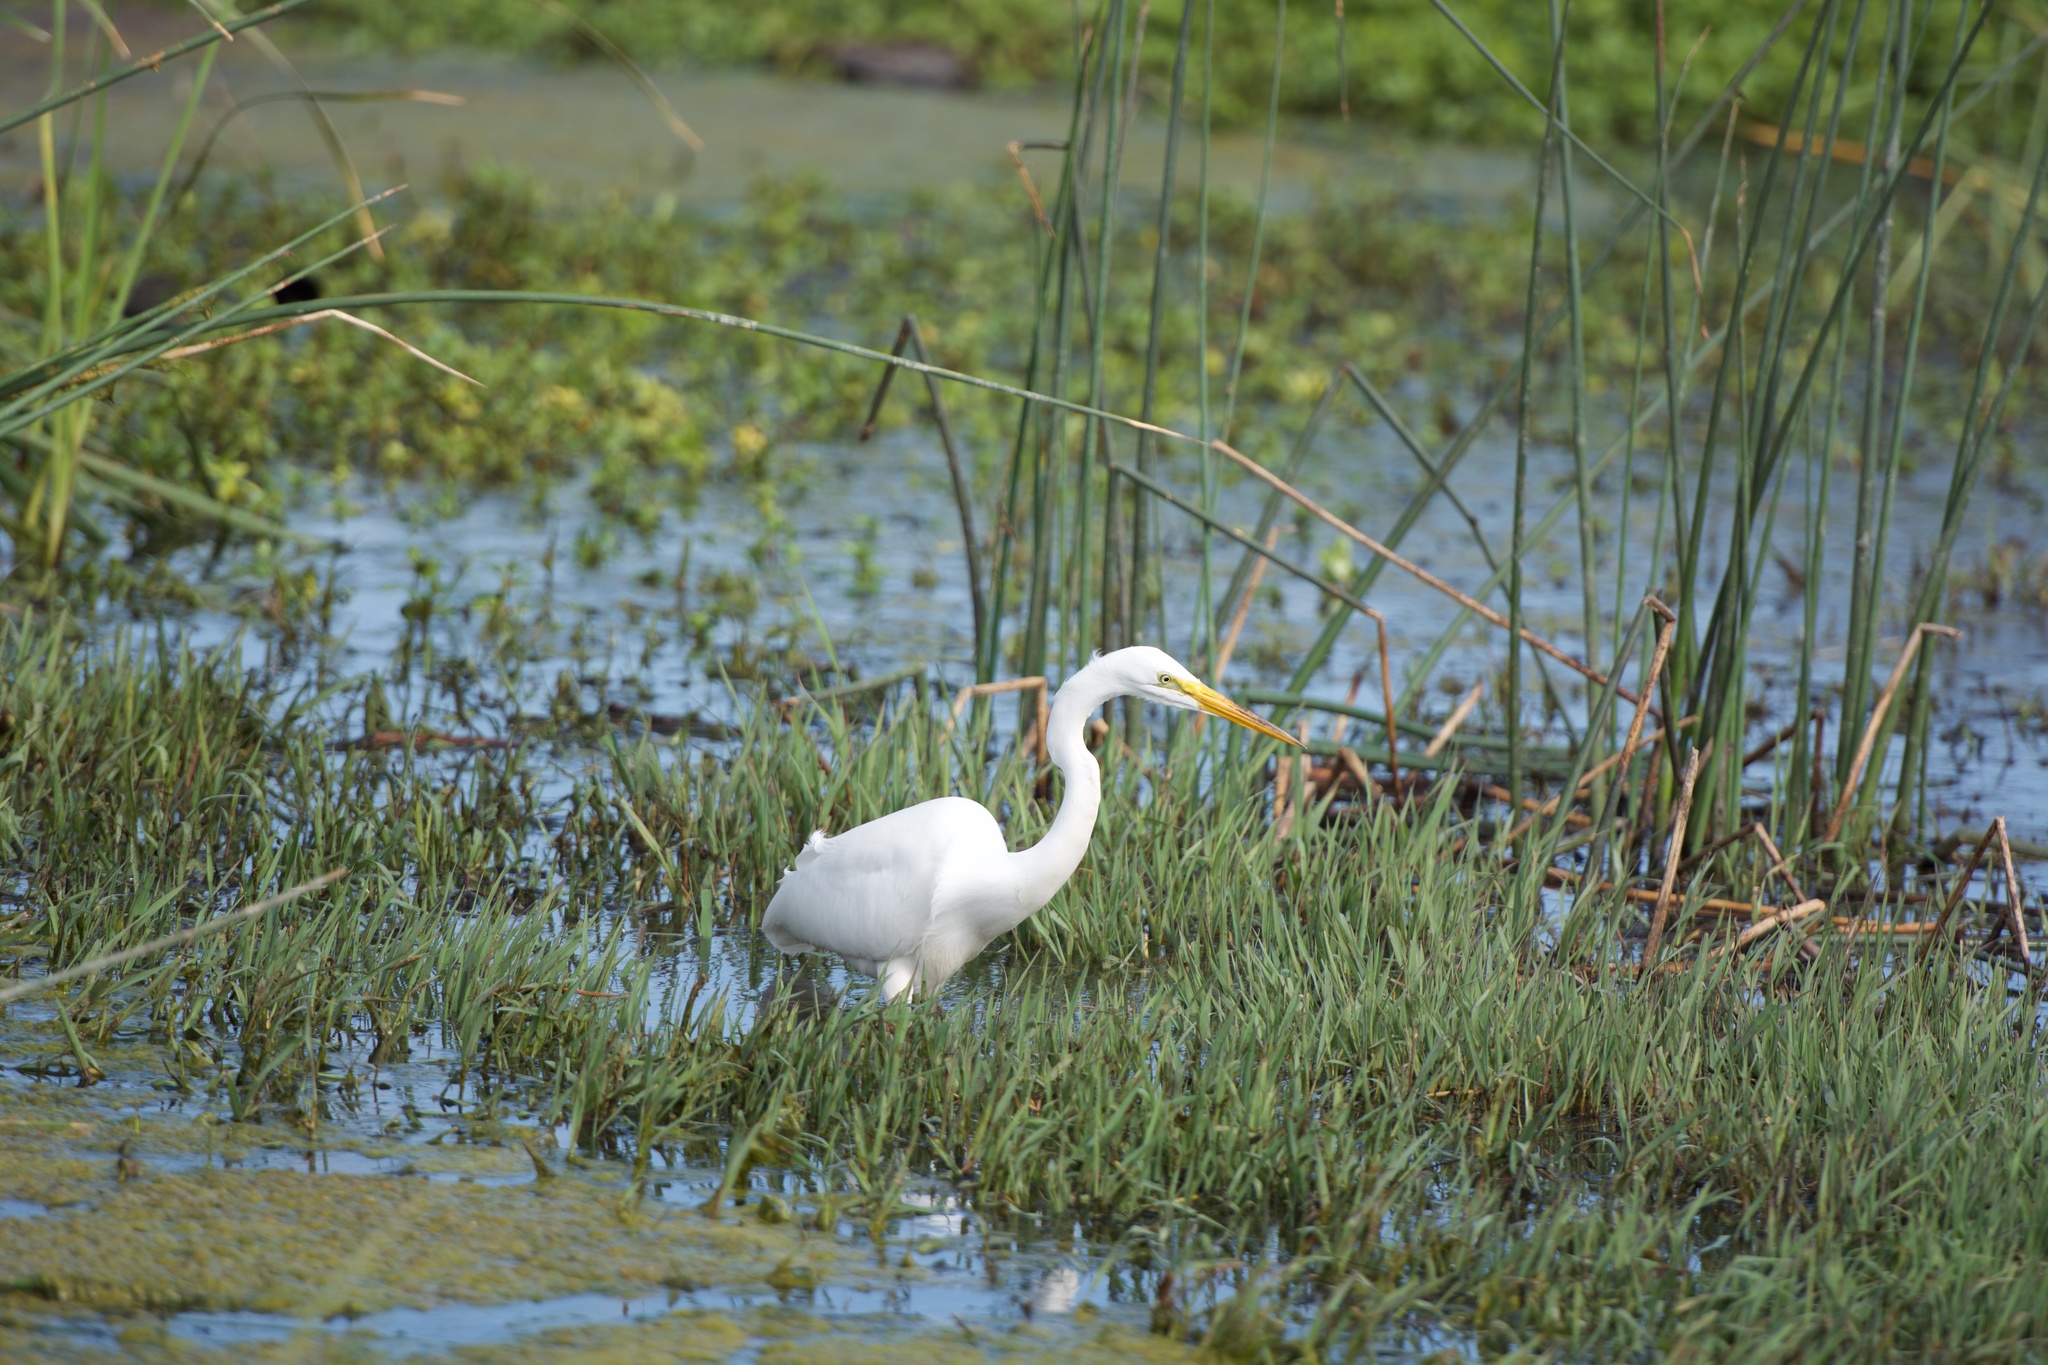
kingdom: Animalia
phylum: Chordata
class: Aves
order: Pelecaniformes
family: Ardeidae
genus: Ardea
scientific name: Ardea alba
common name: Great egret
